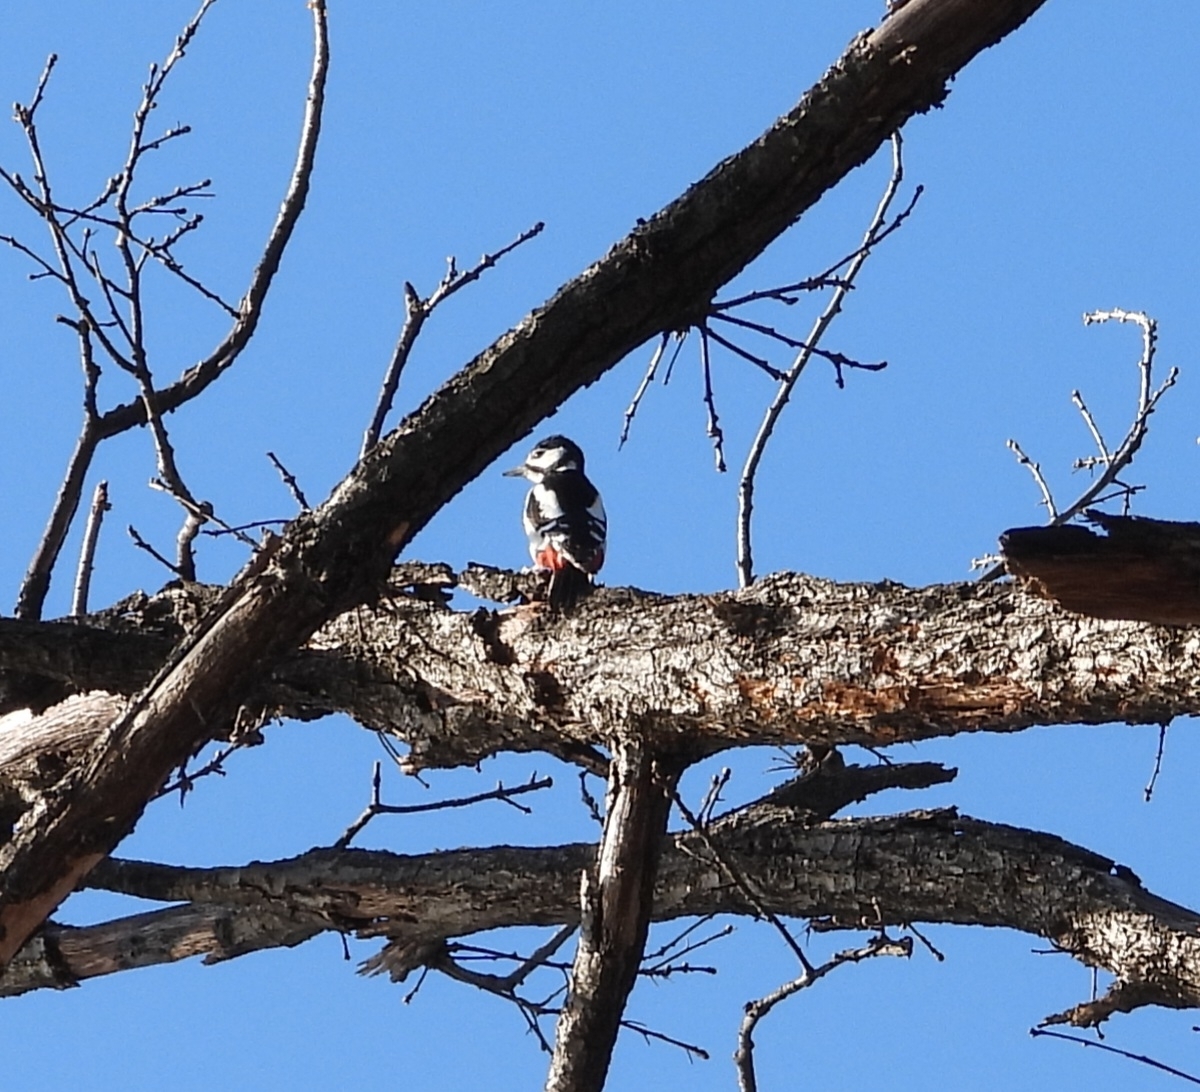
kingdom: Animalia
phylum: Chordata
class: Aves
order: Piciformes
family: Picidae
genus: Dendrocopos
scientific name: Dendrocopos major
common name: Great spotted woodpecker
